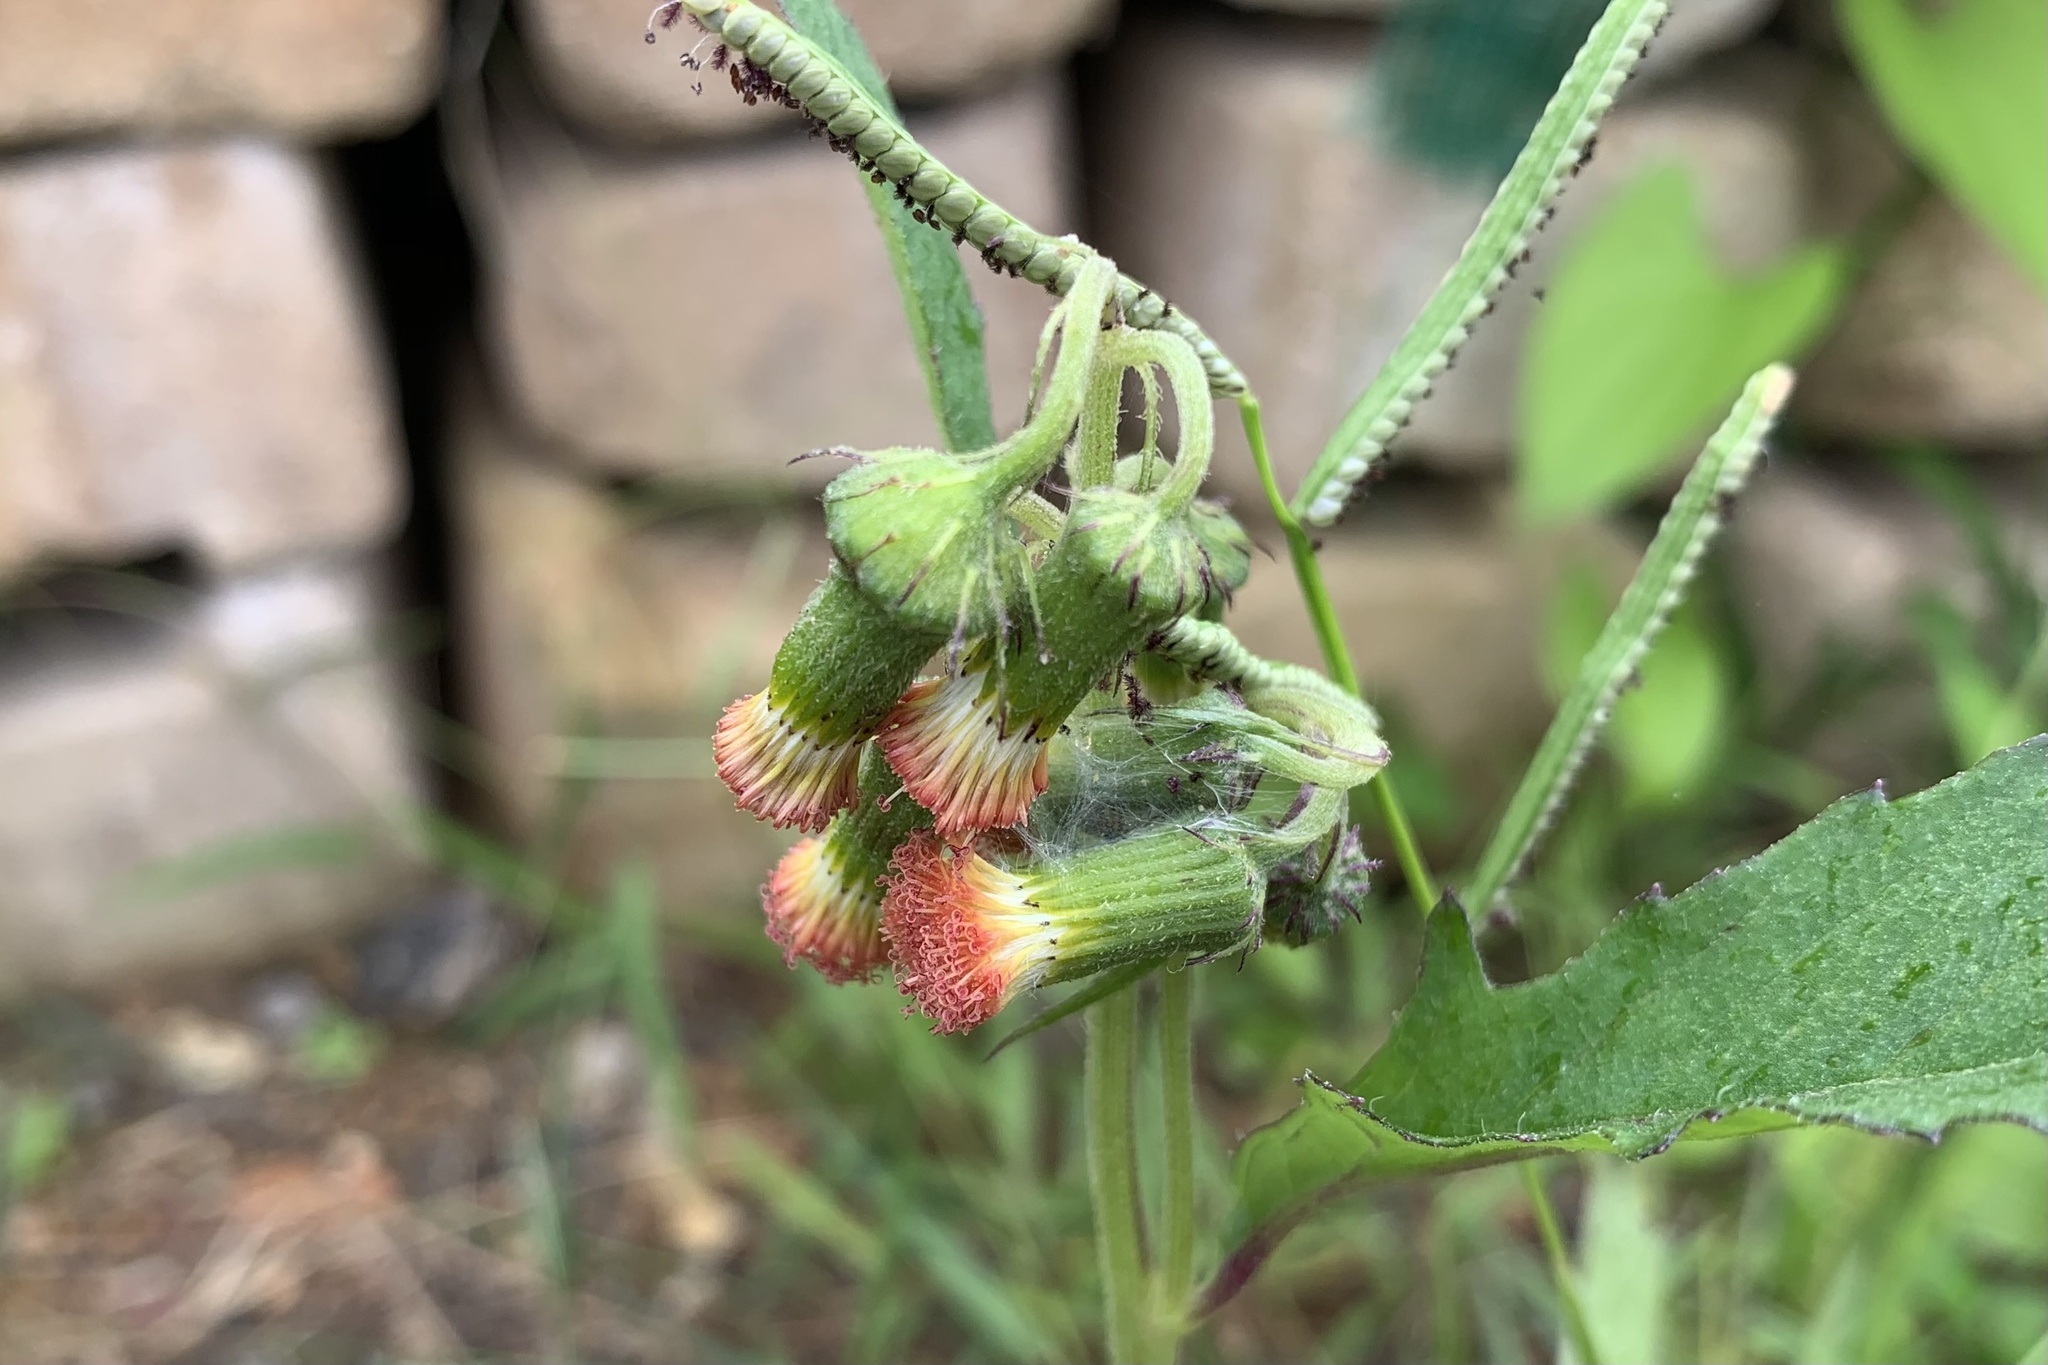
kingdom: Plantae
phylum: Tracheophyta
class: Magnoliopsida
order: Asterales
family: Asteraceae
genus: Crassocephalum
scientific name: Crassocephalum crepidioides
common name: Redflower ragleaf
